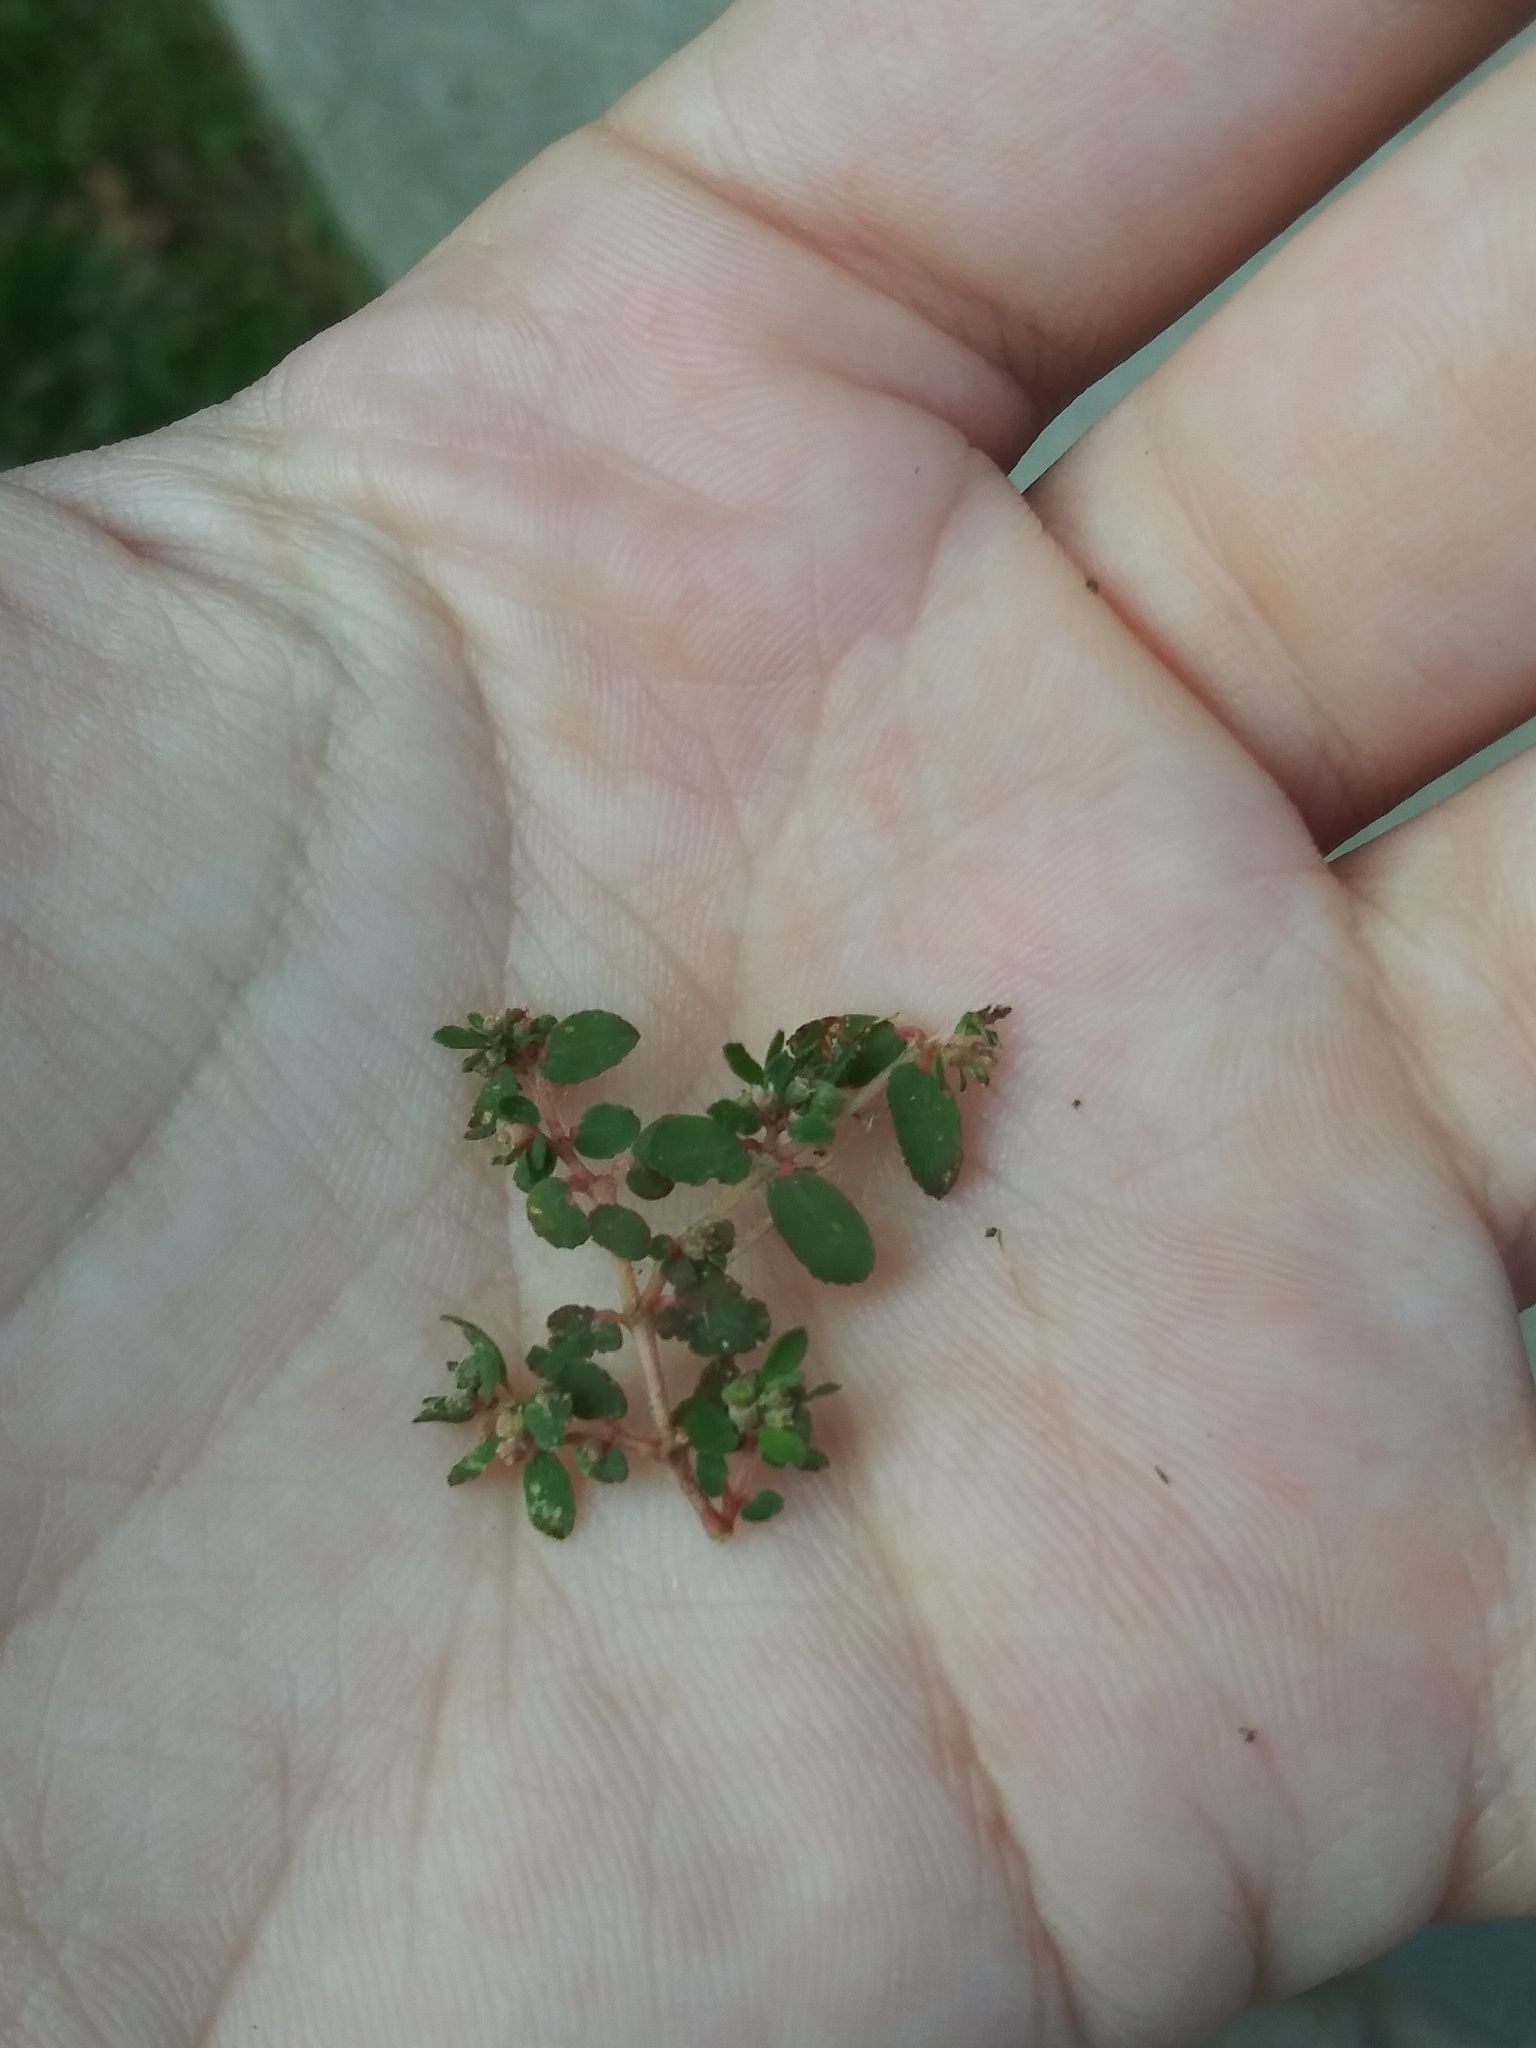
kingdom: Plantae
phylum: Tracheophyta
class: Magnoliopsida
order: Malpighiales
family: Euphorbiaceae
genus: Euphorbia
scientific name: Euphorbia maculata
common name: Spotted spurge
